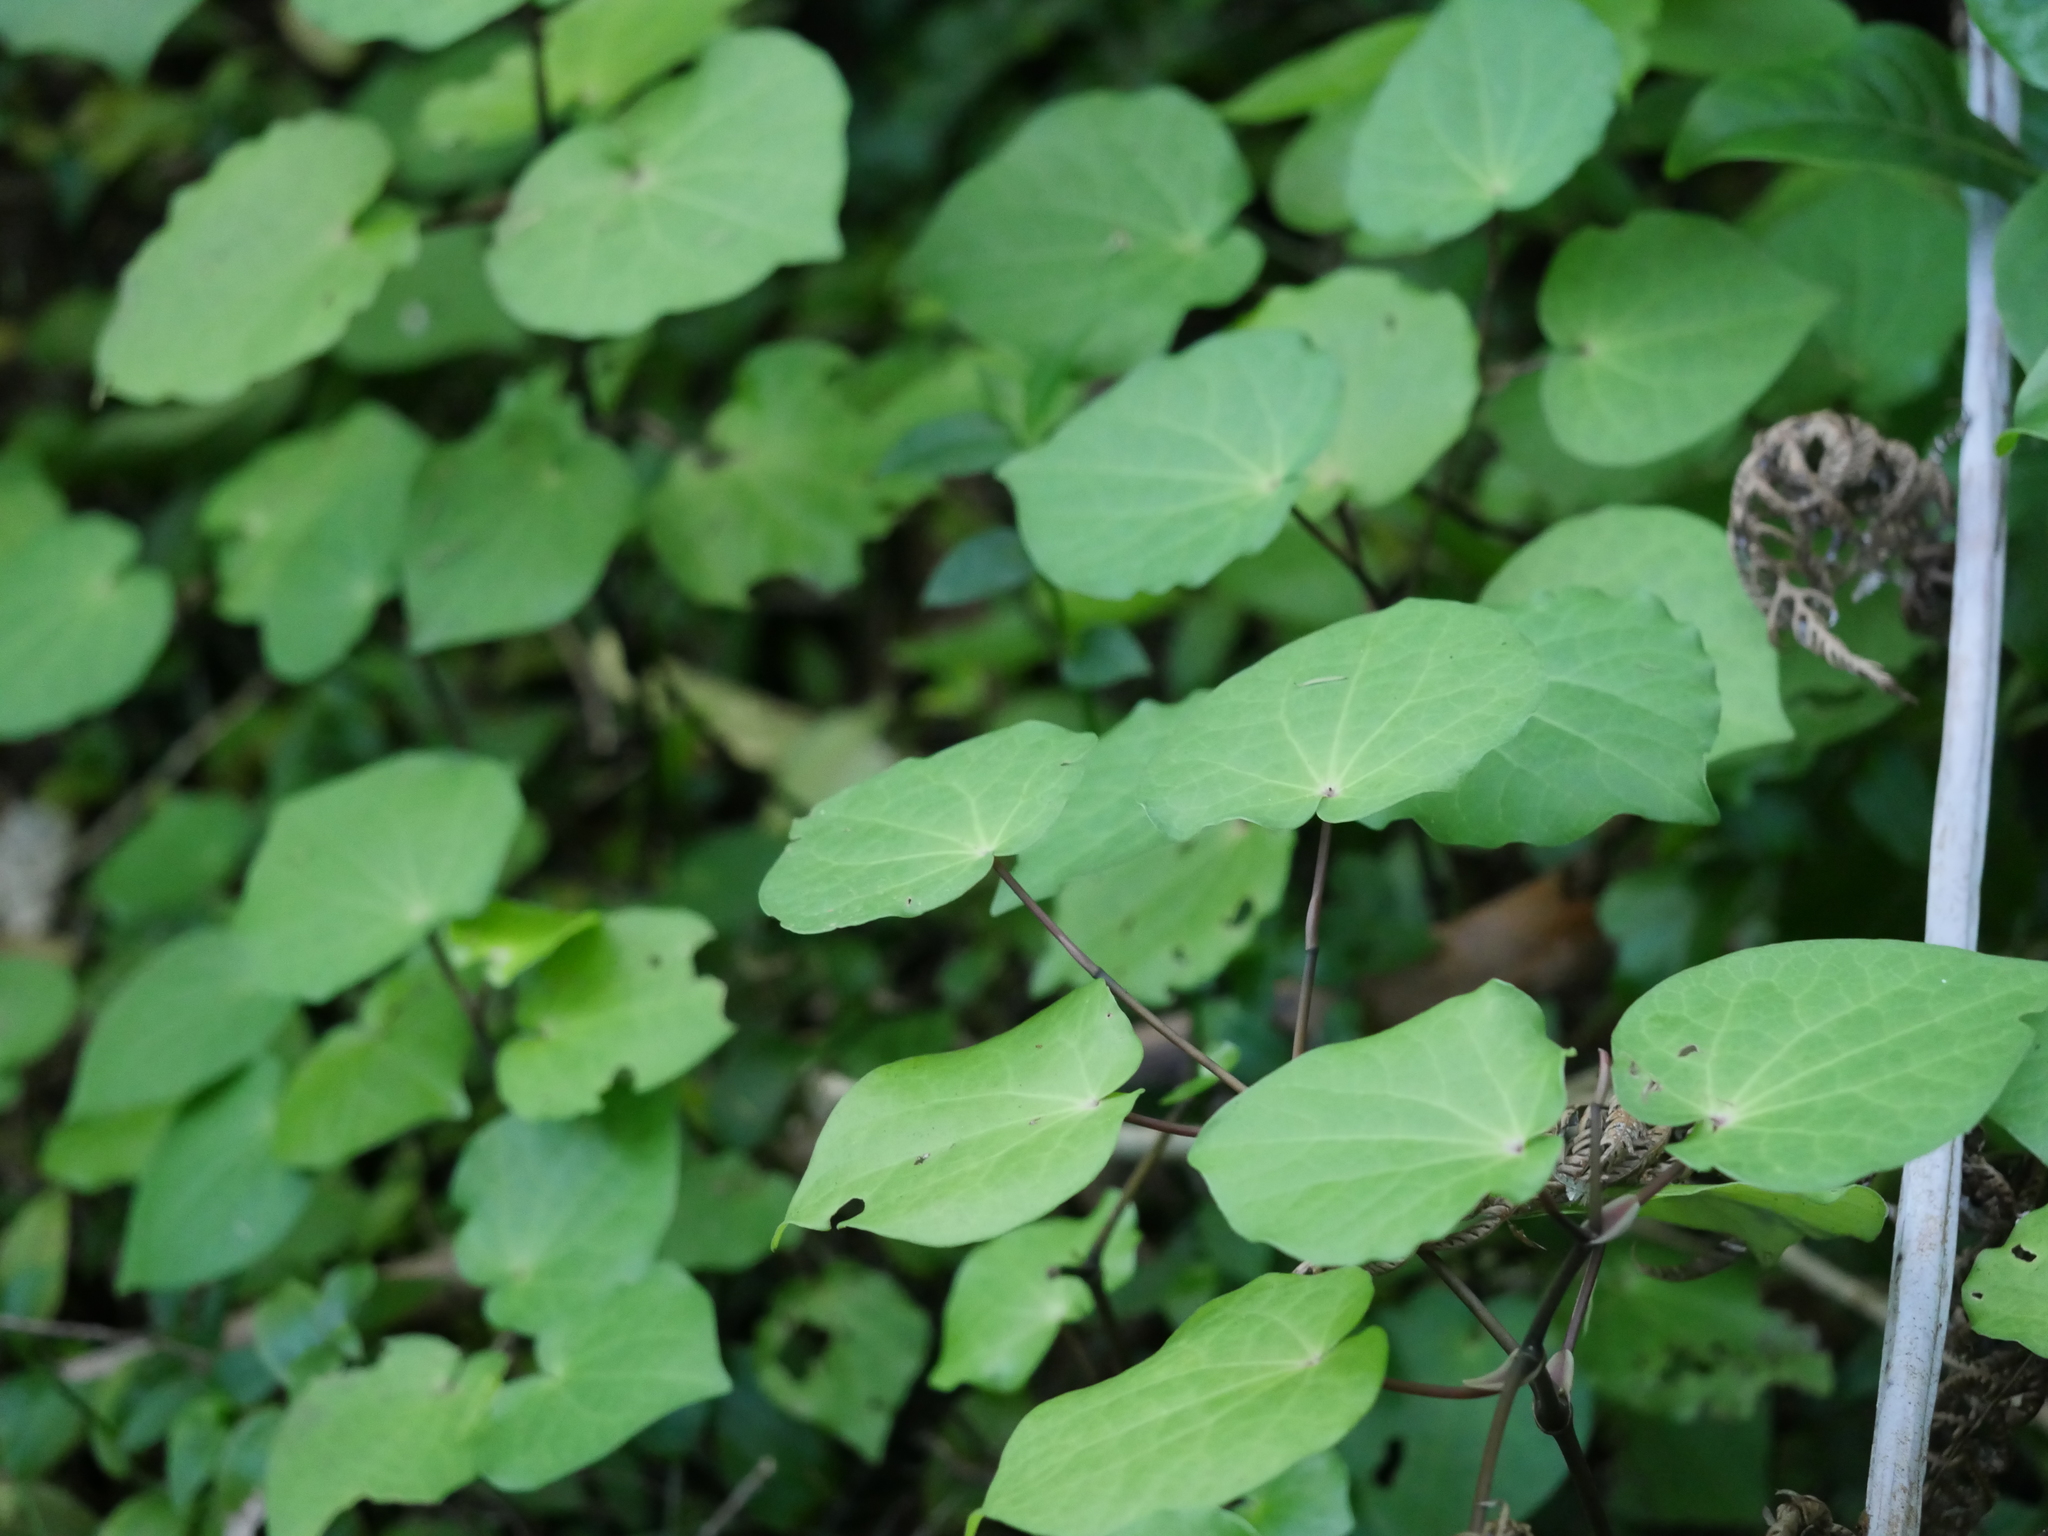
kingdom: Plantae
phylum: Tracheophyta
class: Magnoliopsida
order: Piperales
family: Piperaceae
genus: Macropiper
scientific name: Macropiper excelsum
